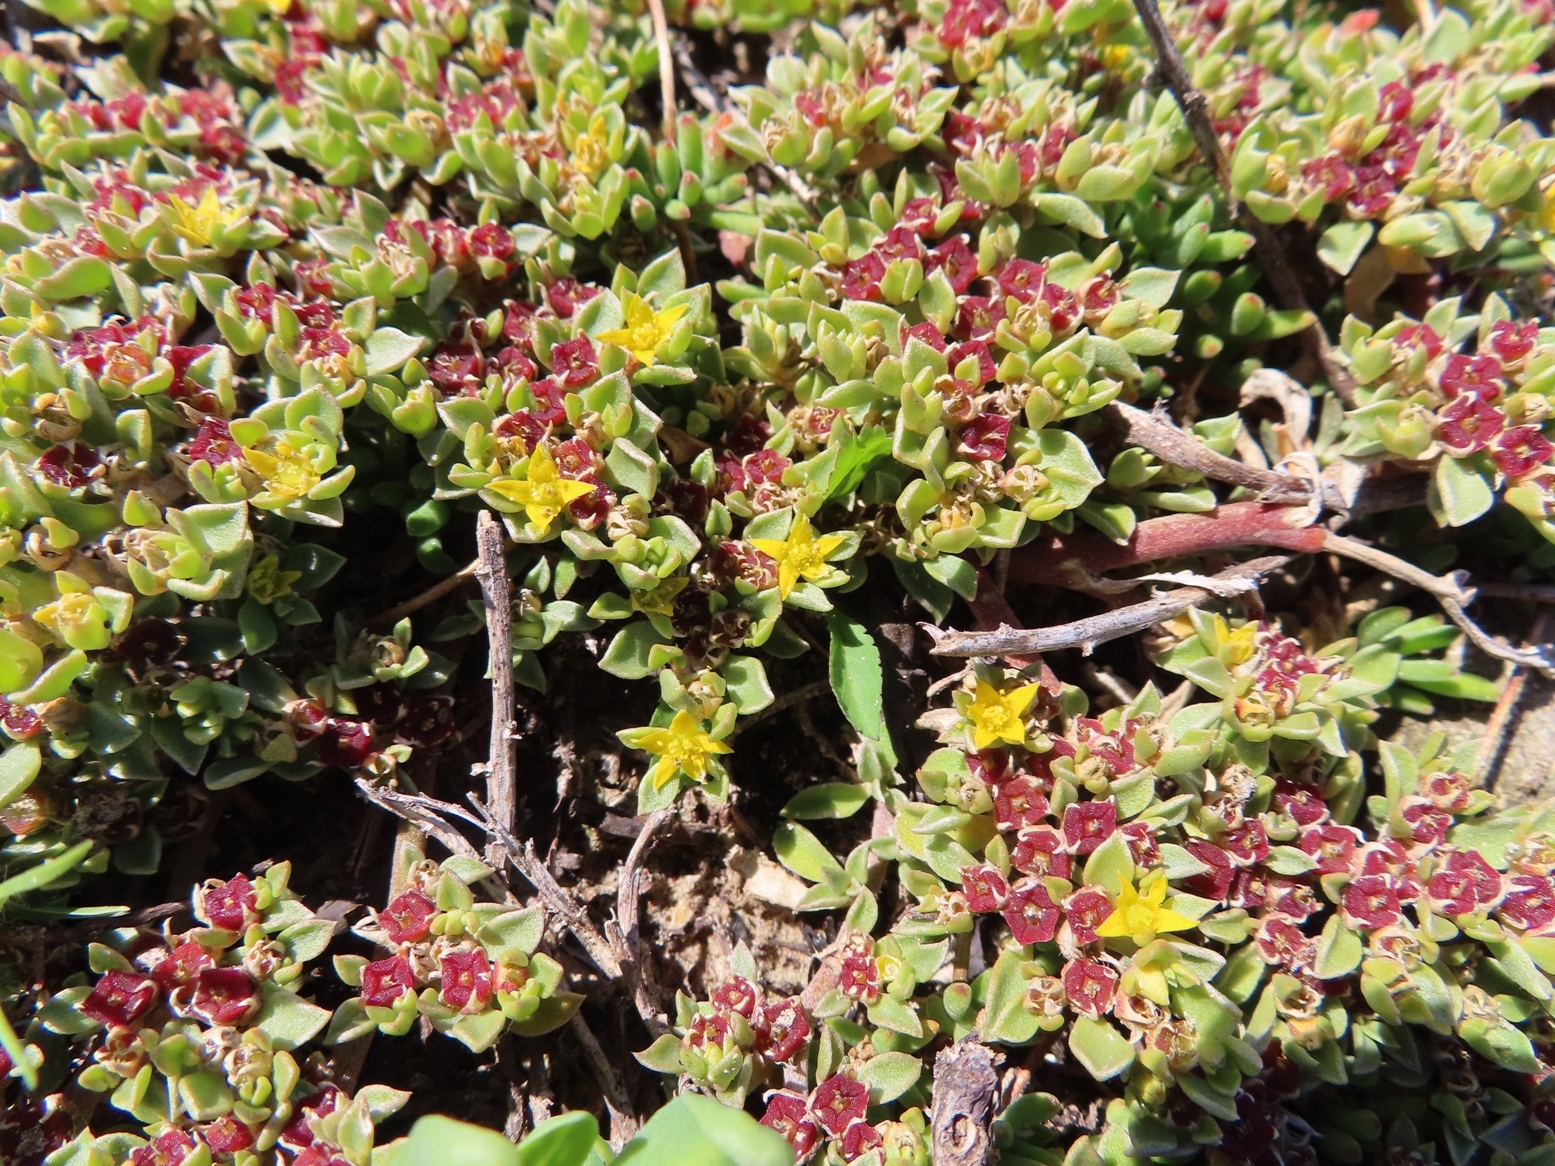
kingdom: Plantae
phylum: Tracheophyta
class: Magnoliopsida
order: Caryophyllales
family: Aizoaceae
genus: Aizoon
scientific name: Aizoon rigidum
